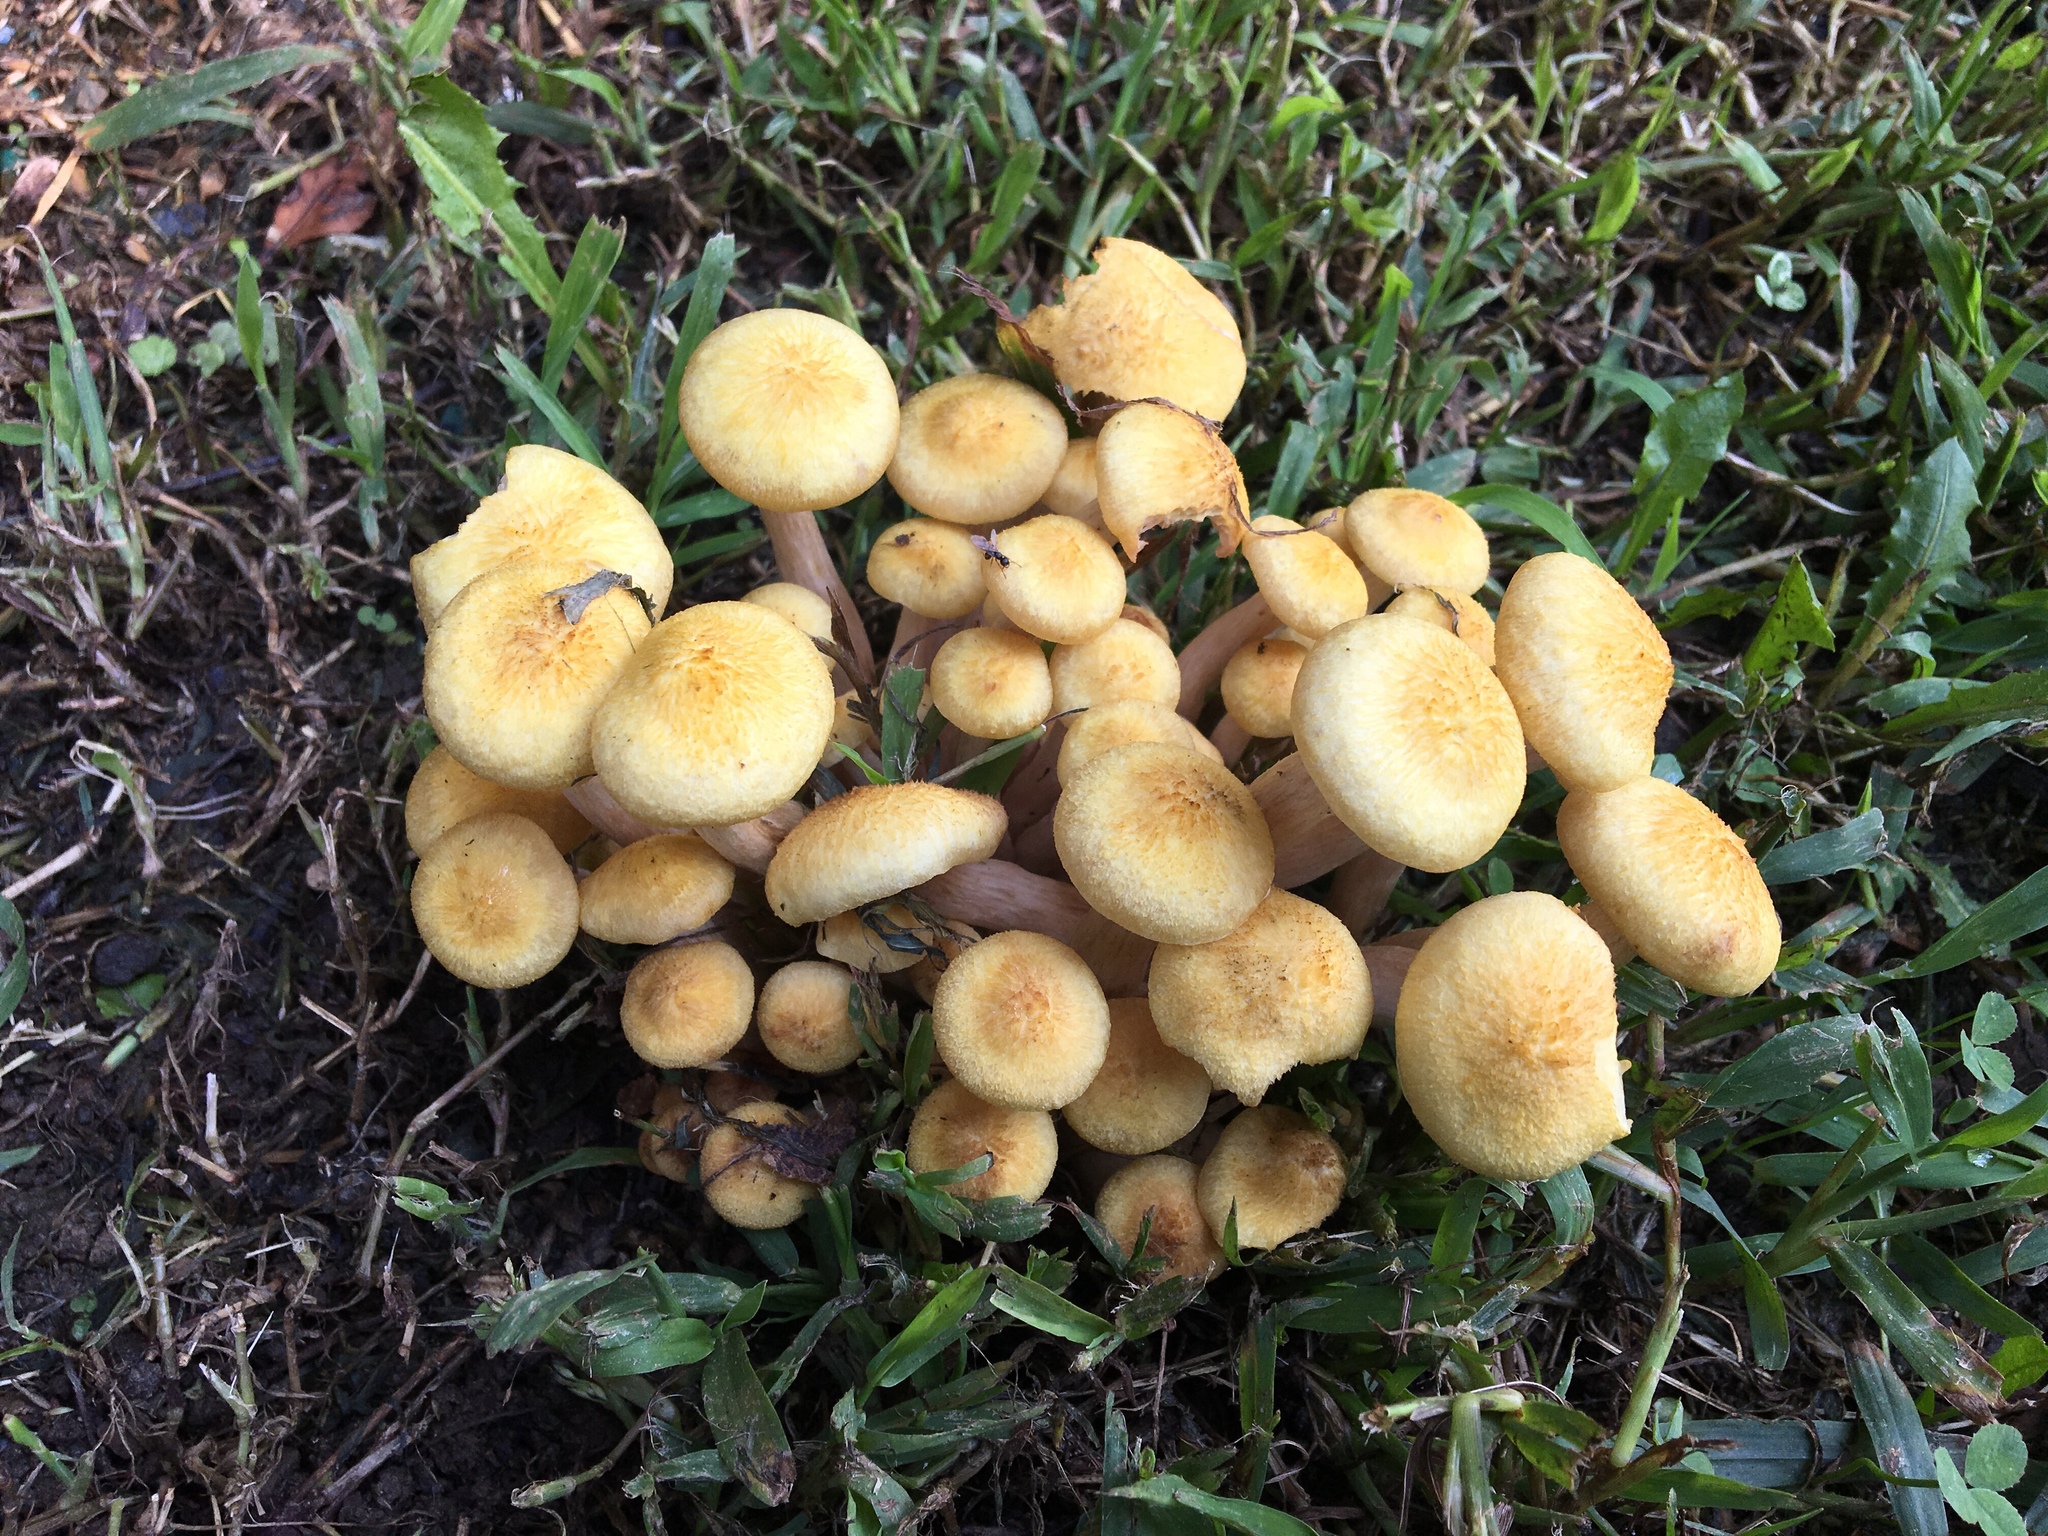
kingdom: Fungi
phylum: Basidiomycota
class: Agaricomycetes
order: Agaricales
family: Physalacriaceae
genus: Desarmillaria
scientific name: Desarmillaria caespitosa
